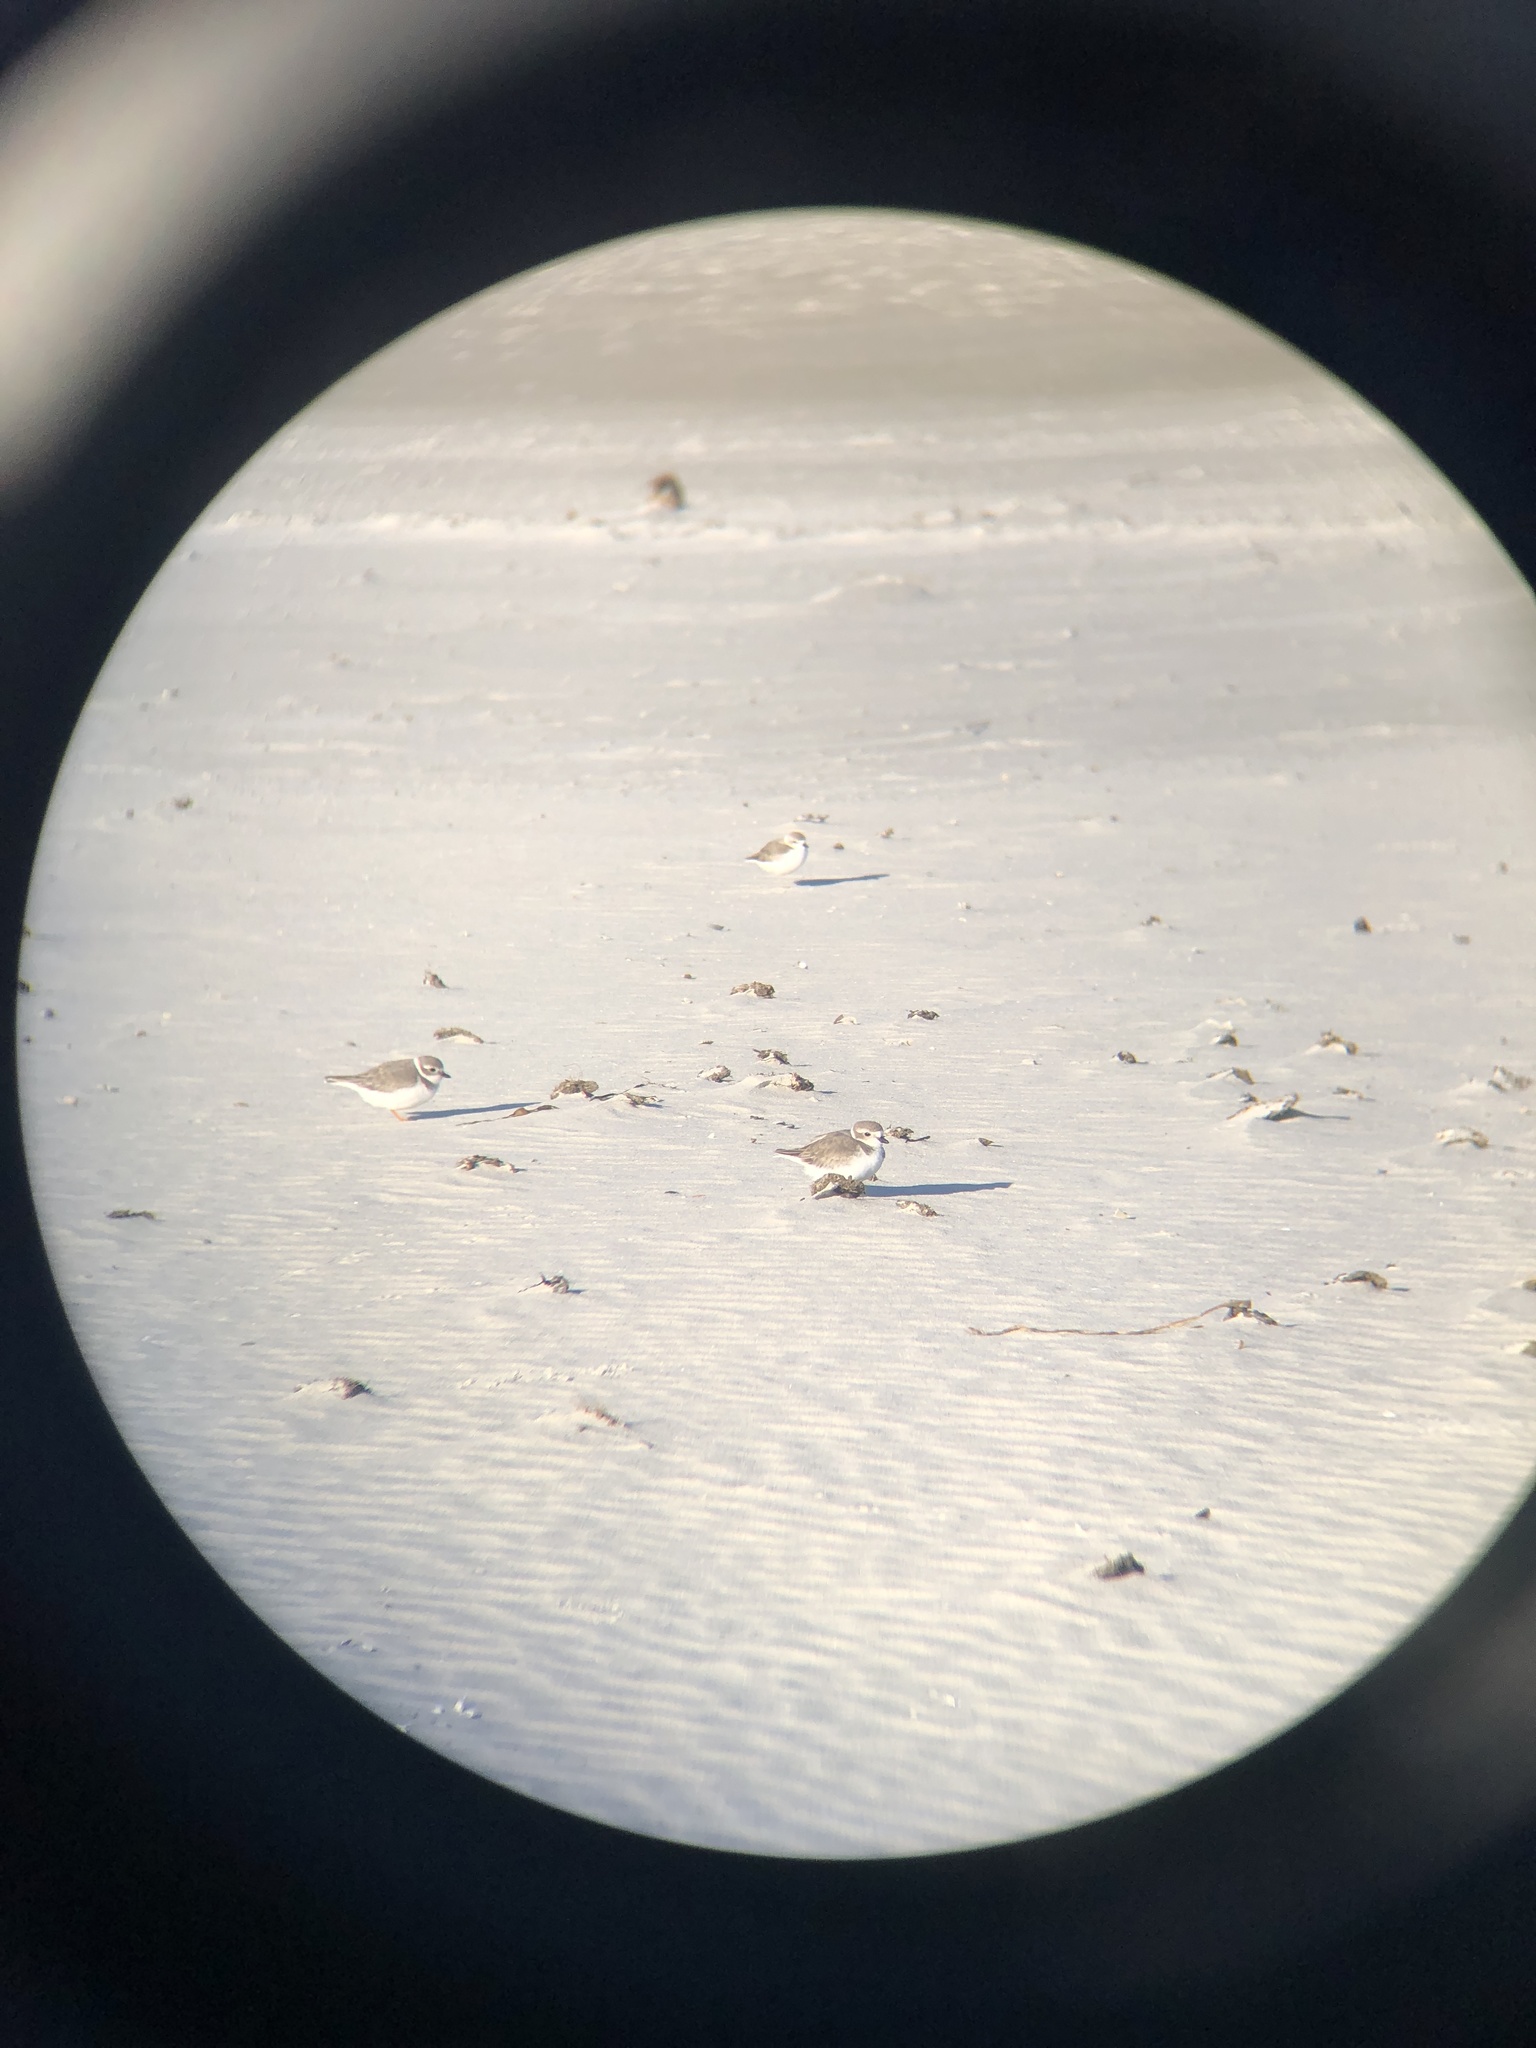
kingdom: Animalia
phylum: Chordata
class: Aves
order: Charadriiformes
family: Charadriidae
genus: Charadrius
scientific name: Charadrius melodus
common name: Piping plover
